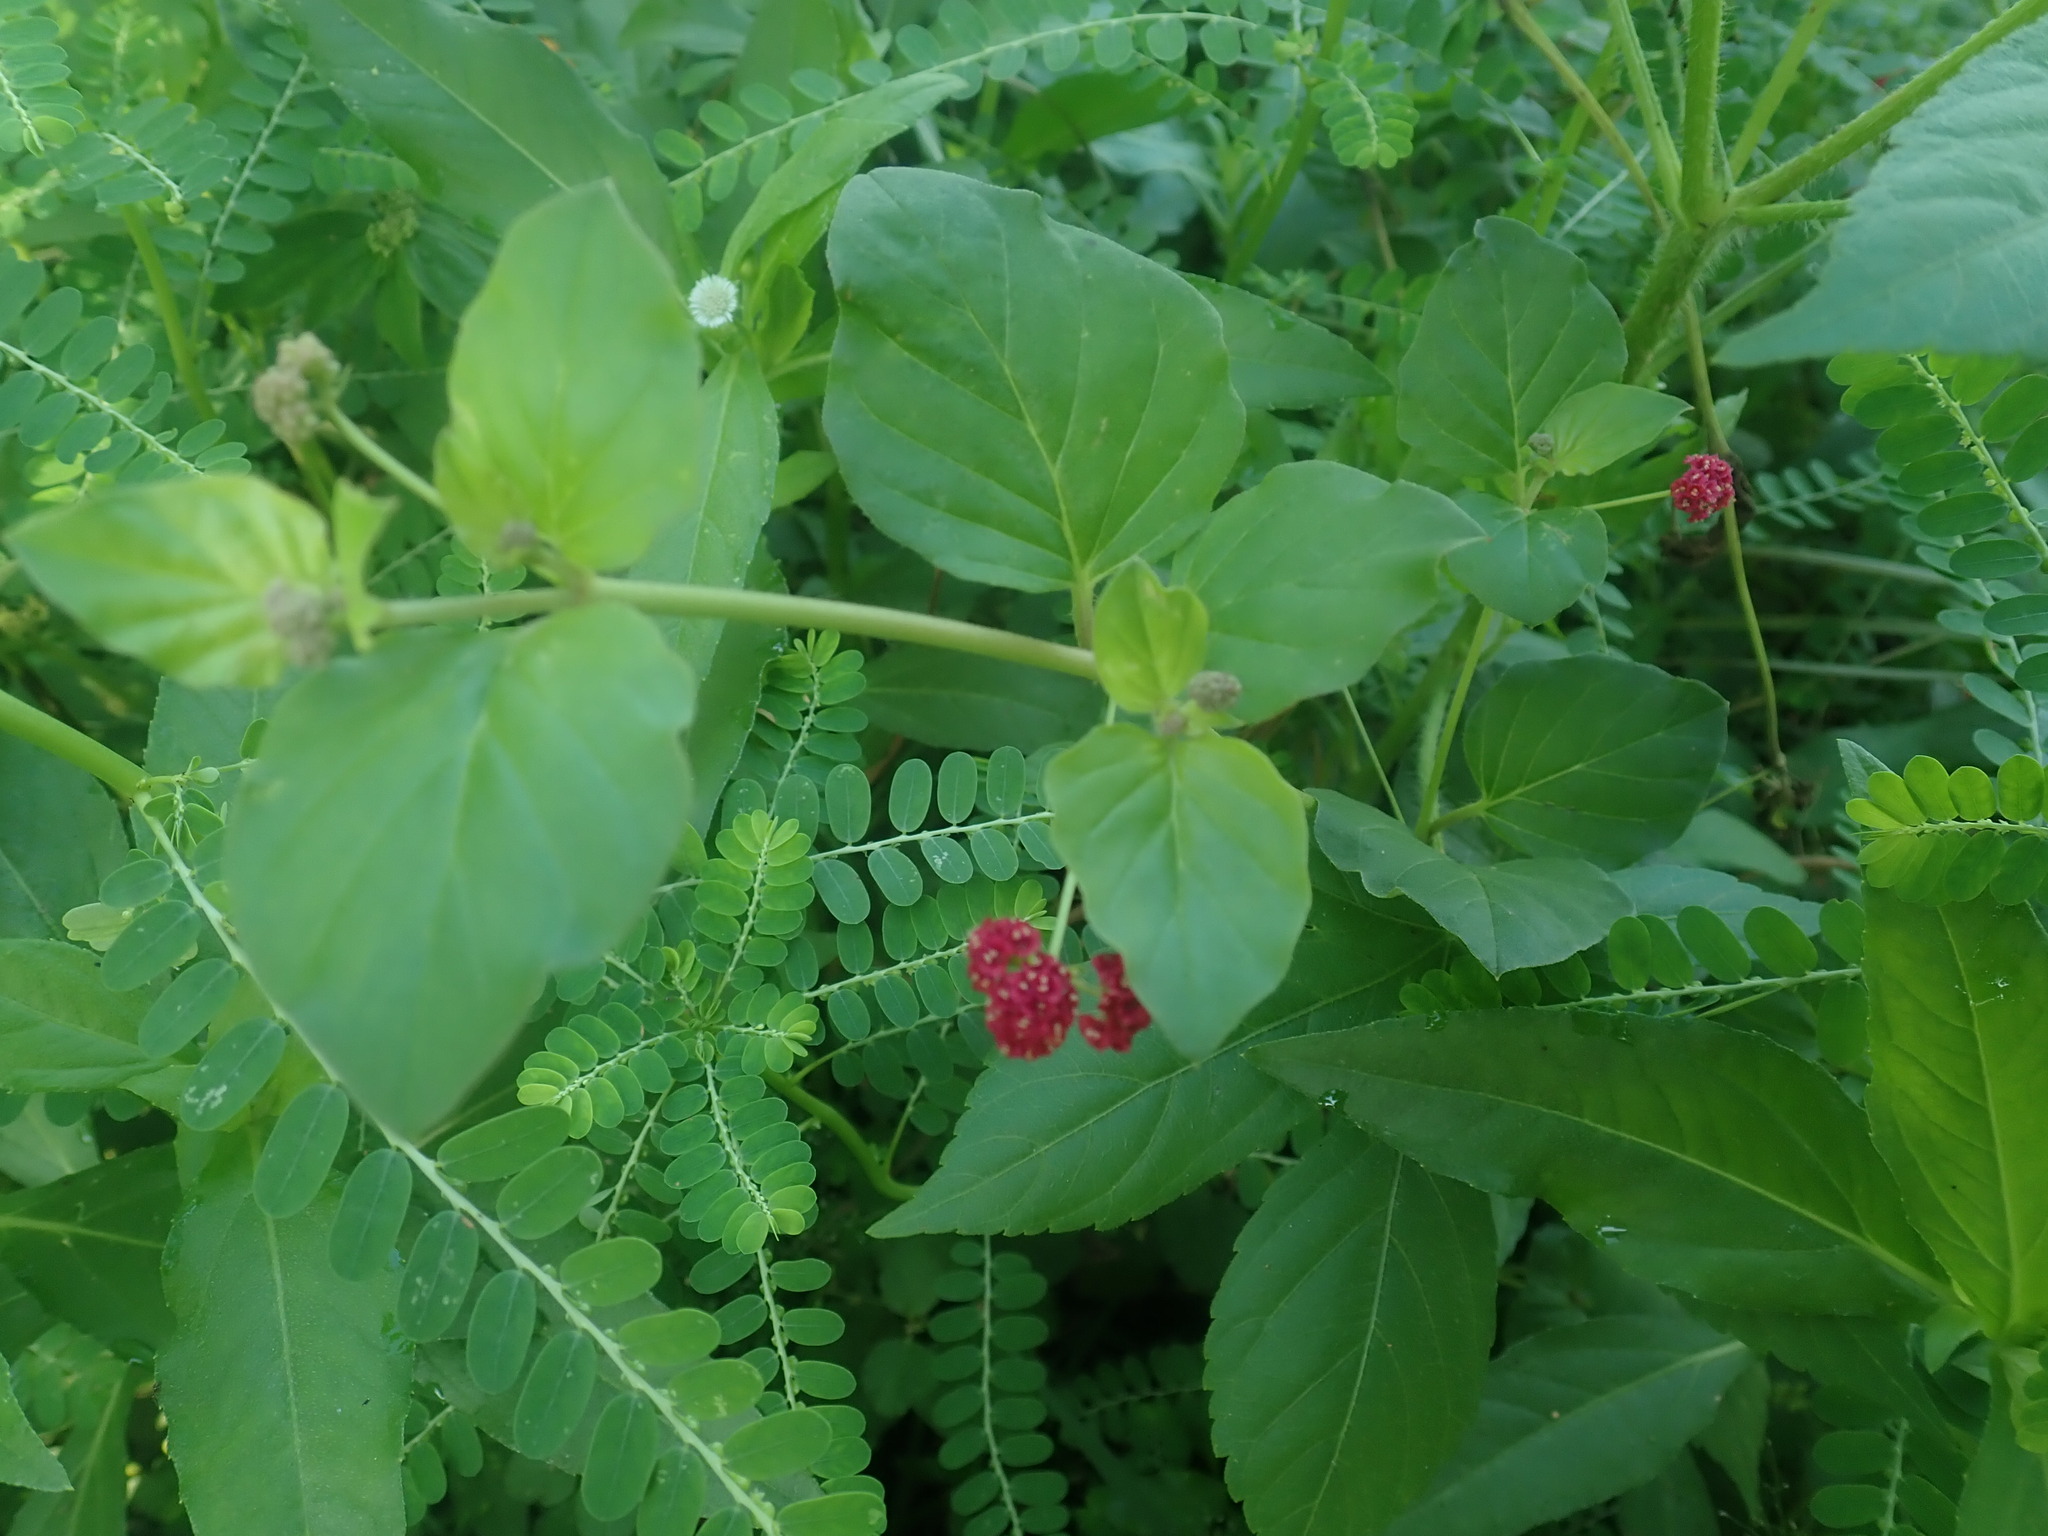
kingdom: Plantae
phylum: Tracheophyta
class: Magnoliopsida
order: Caryophyllales
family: Nyctaginaceae
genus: Boerhavia
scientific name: Boerhavia coccinea
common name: Scarlet spiderling
